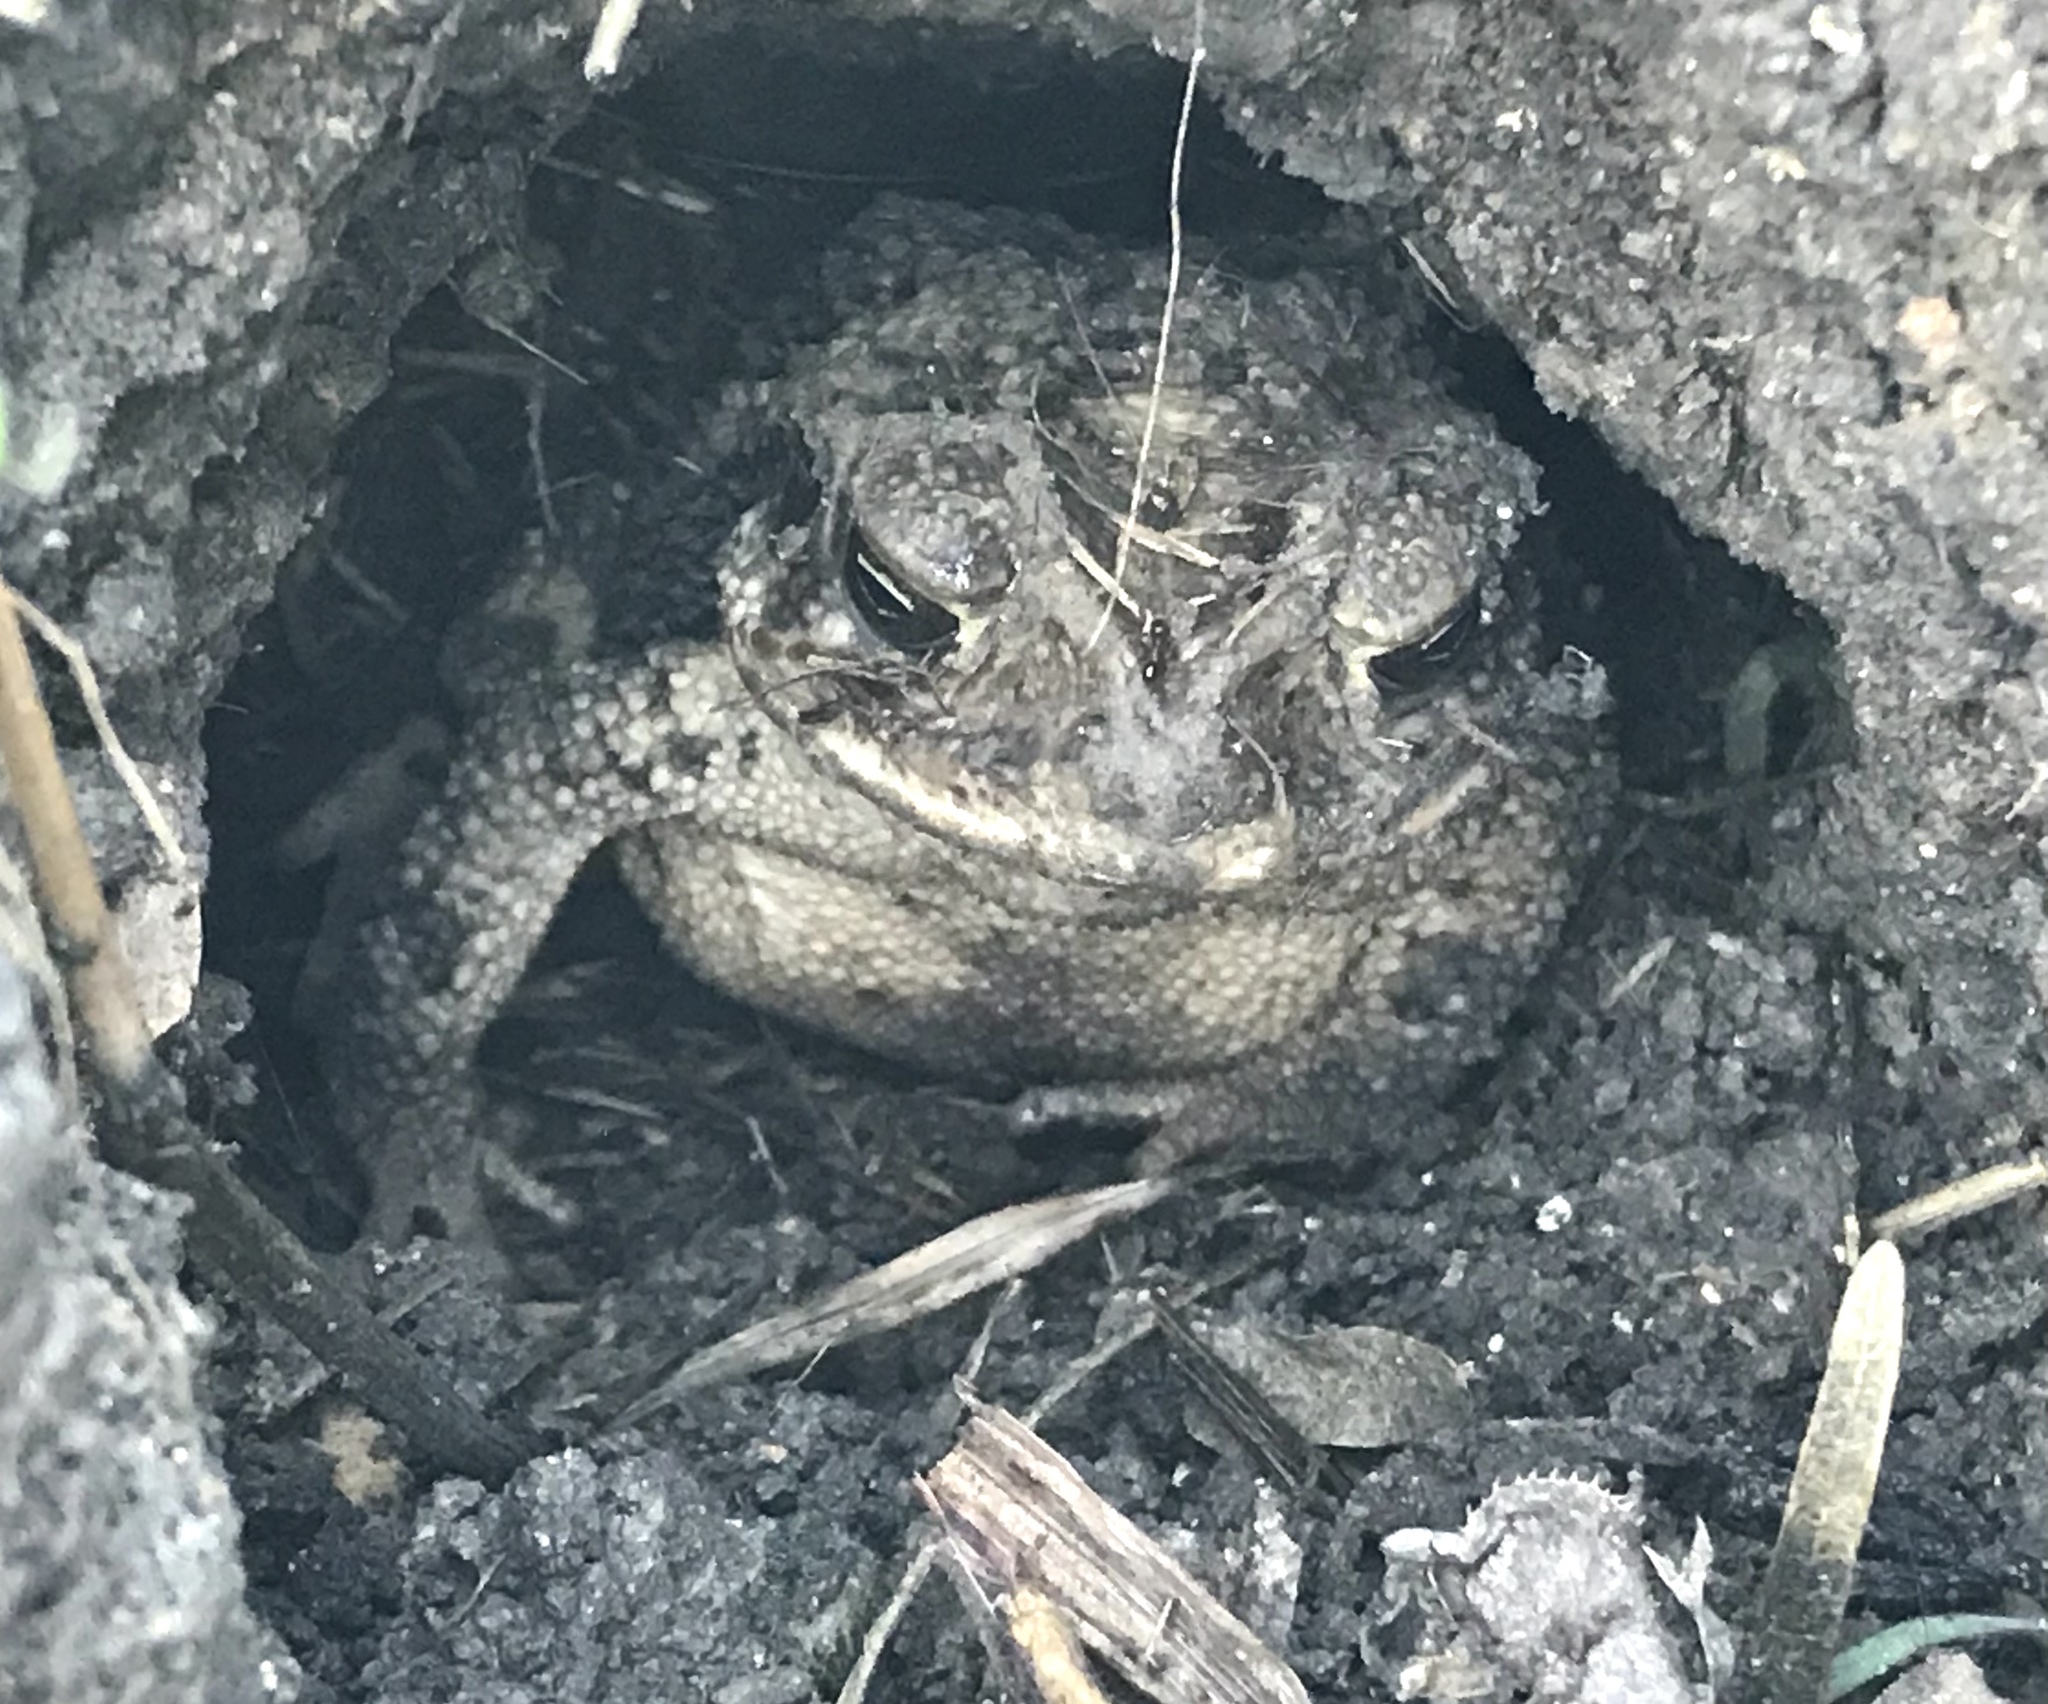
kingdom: Animalia
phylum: Chordata
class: Amphibia
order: Anura
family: Bufonidae
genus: Incilius
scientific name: Incilius nebulifer
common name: Gulf coast toad
